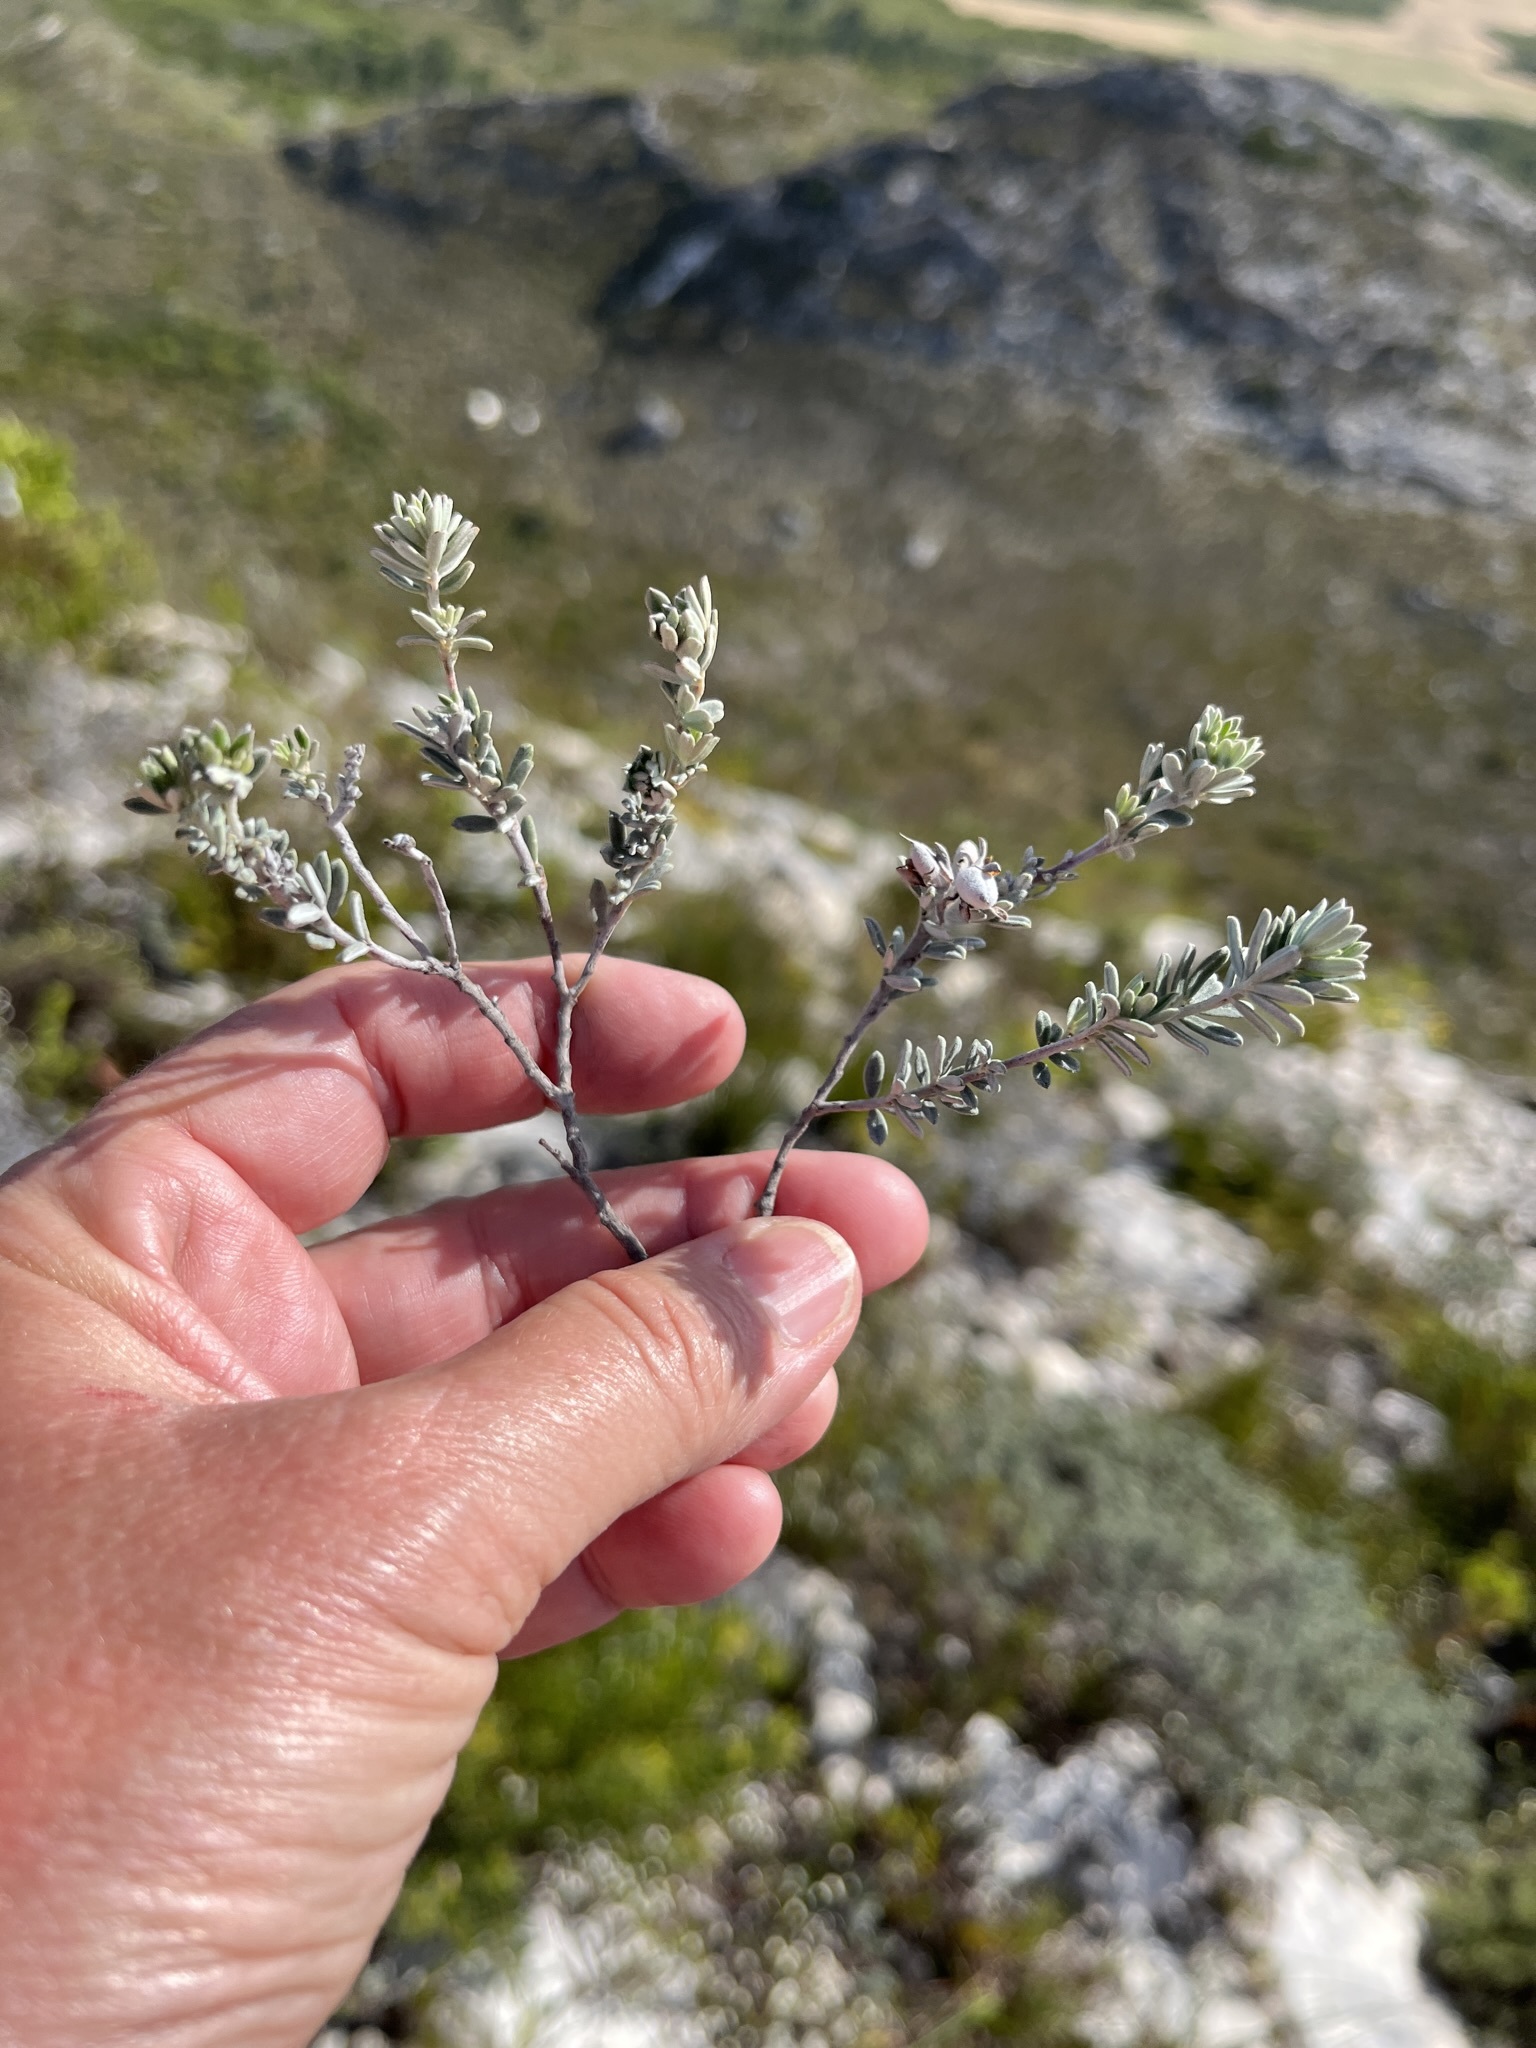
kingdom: Plantae
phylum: Tracheophyta
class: Magnoliopsida
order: Fabales
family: Fabaceae
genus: Indigofera
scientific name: Indigofera brachystachya
